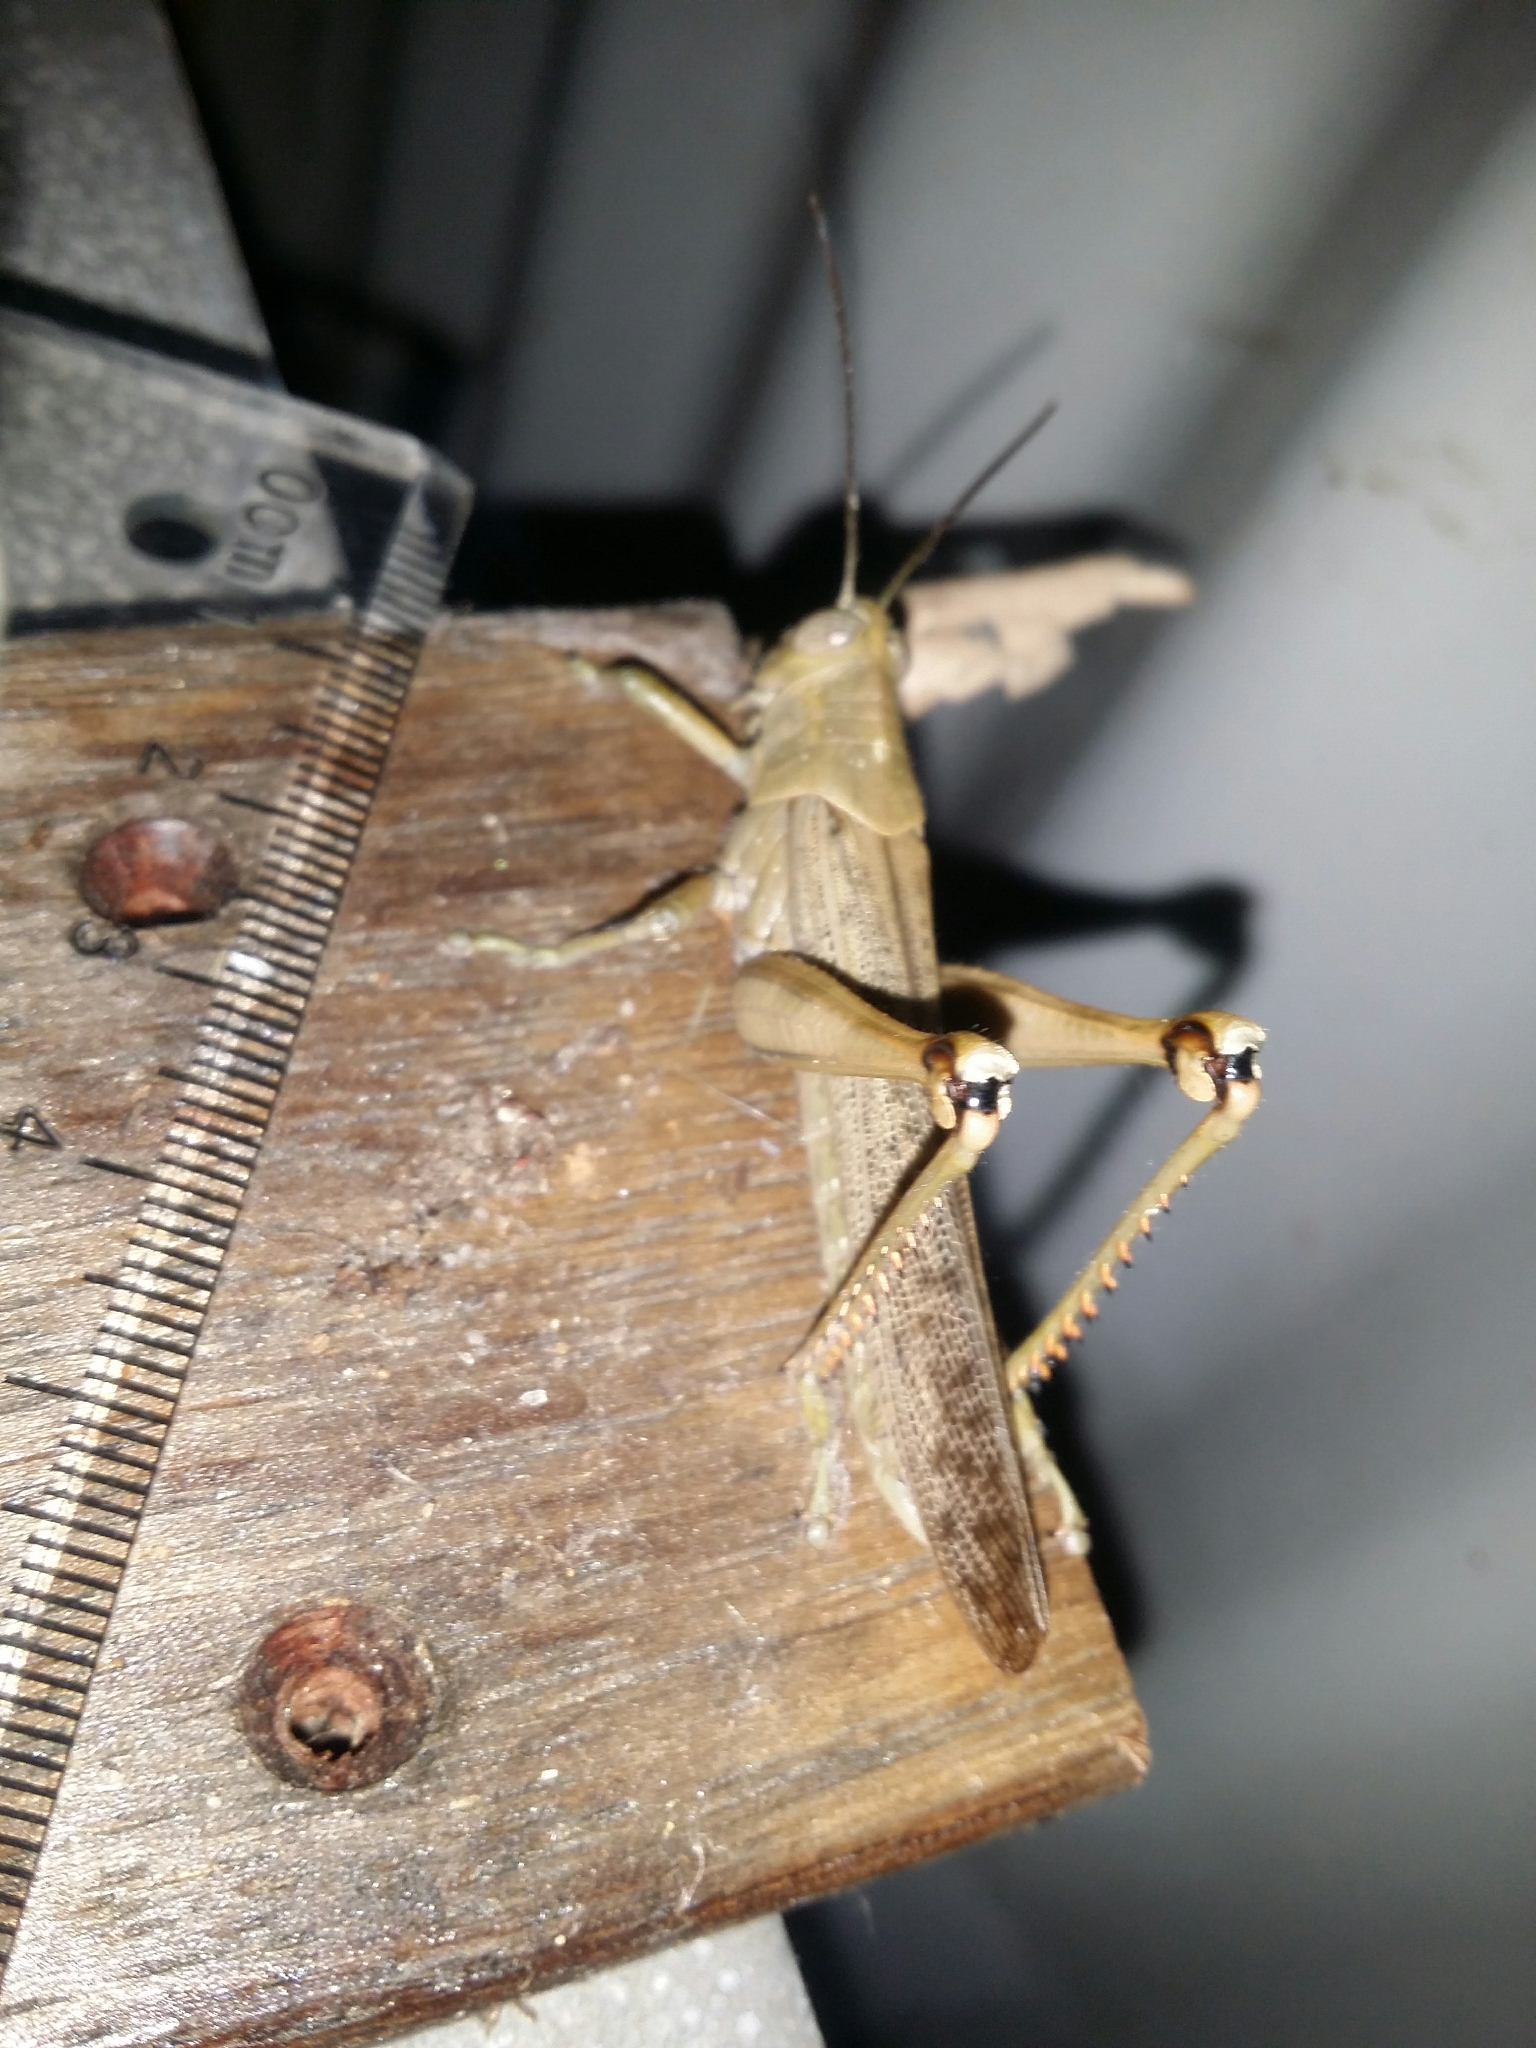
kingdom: Animalia
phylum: Arthropoda
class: Insecta
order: Orthoptera
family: Acrididae
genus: Valanga
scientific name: Valanga irregularis
